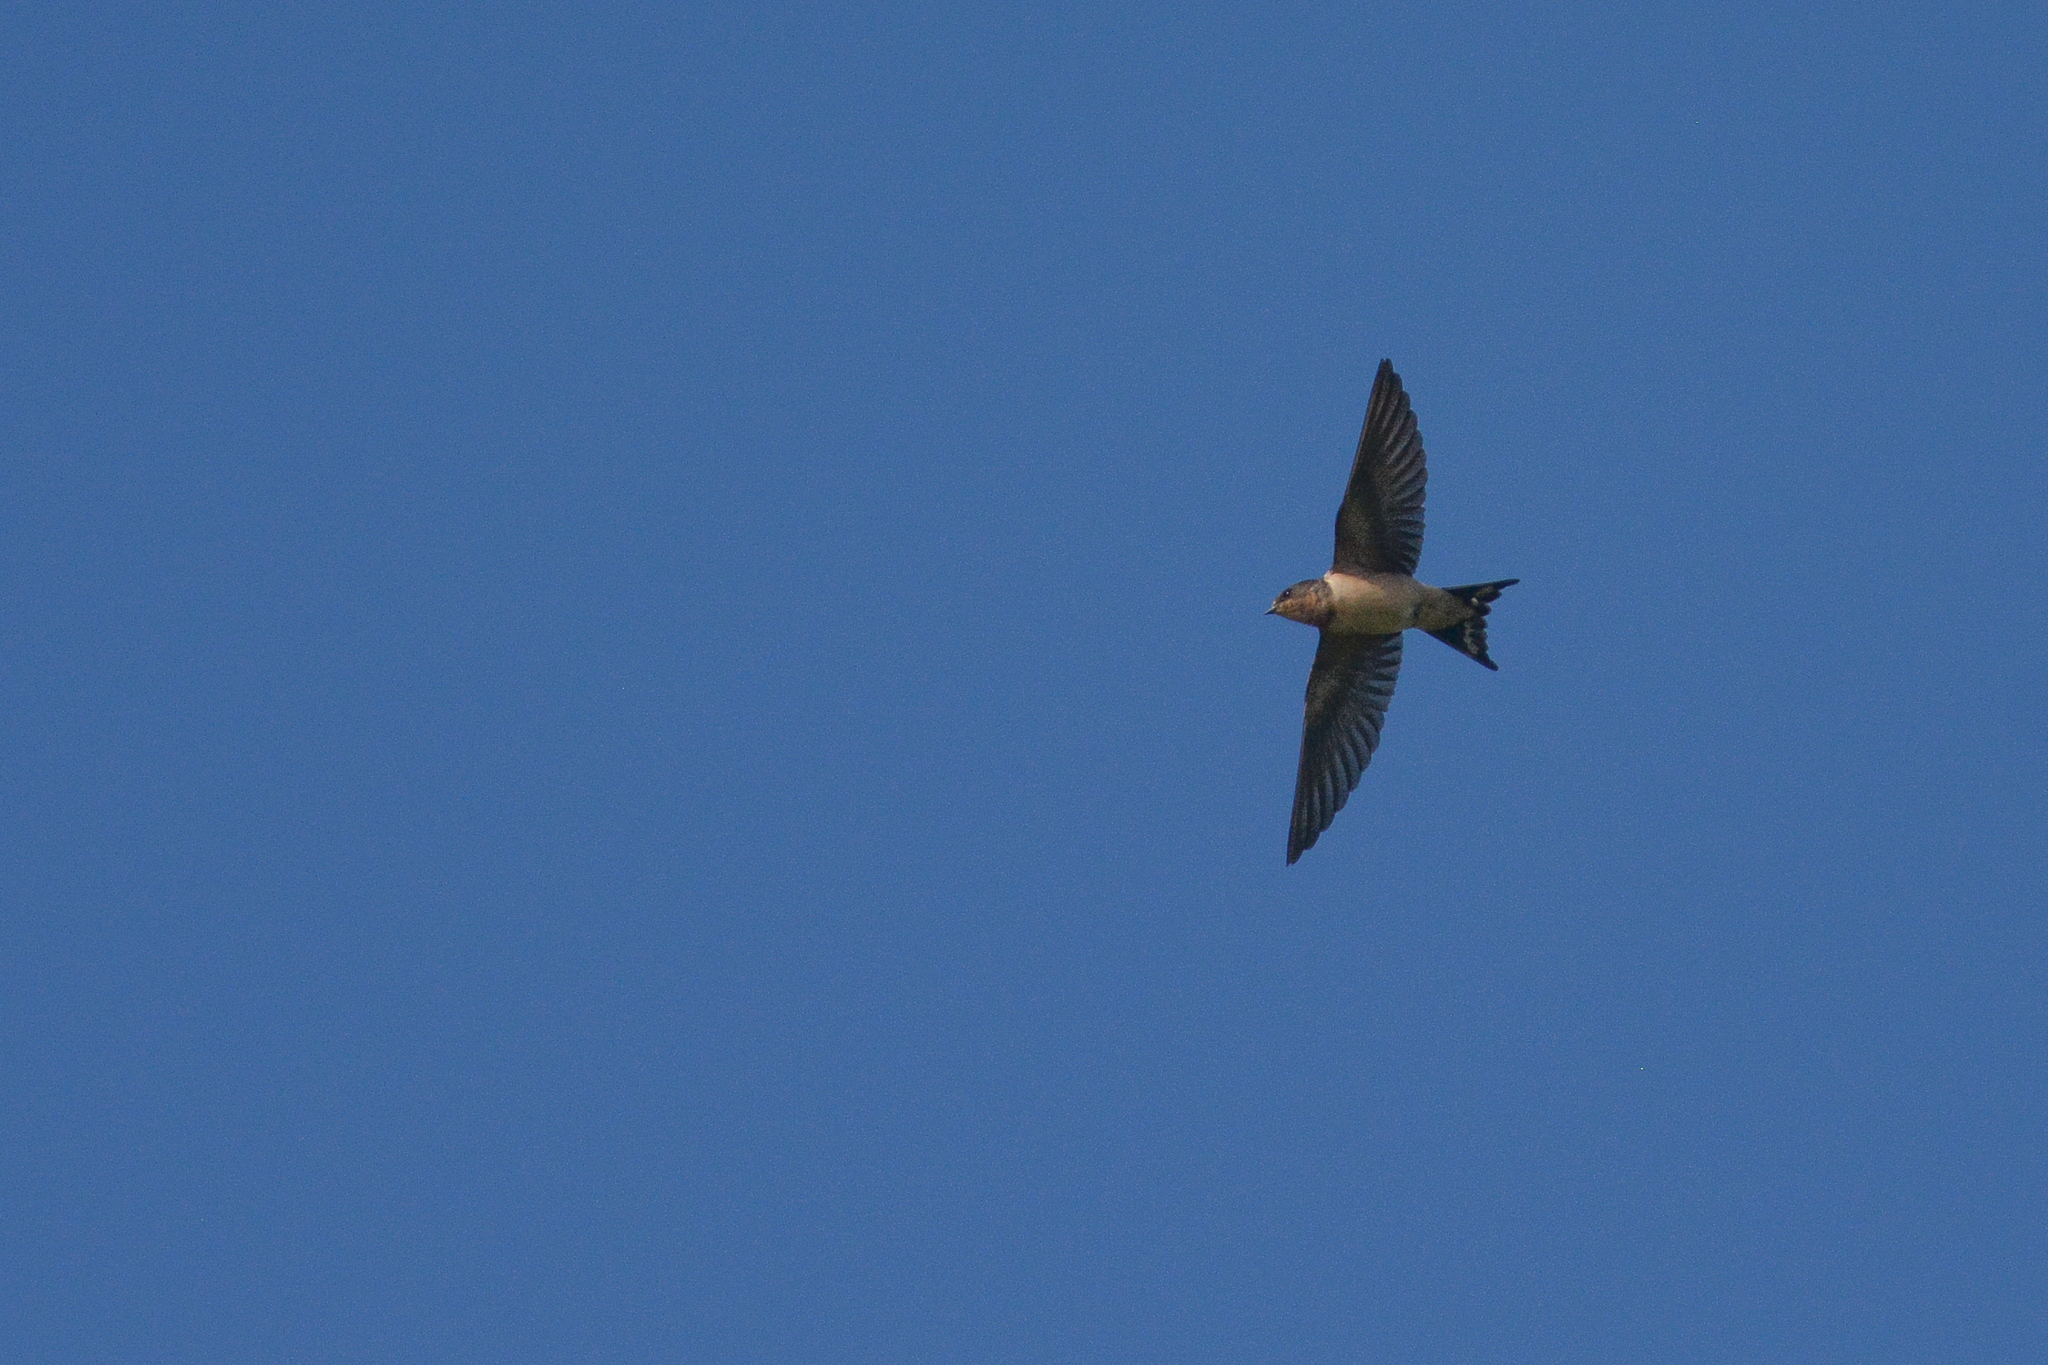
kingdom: Animalia
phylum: Chordata
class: Aves
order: Passeriformes
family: Hirundinidae
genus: Hirundo
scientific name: Hirundo rustica
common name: Barn swallow
